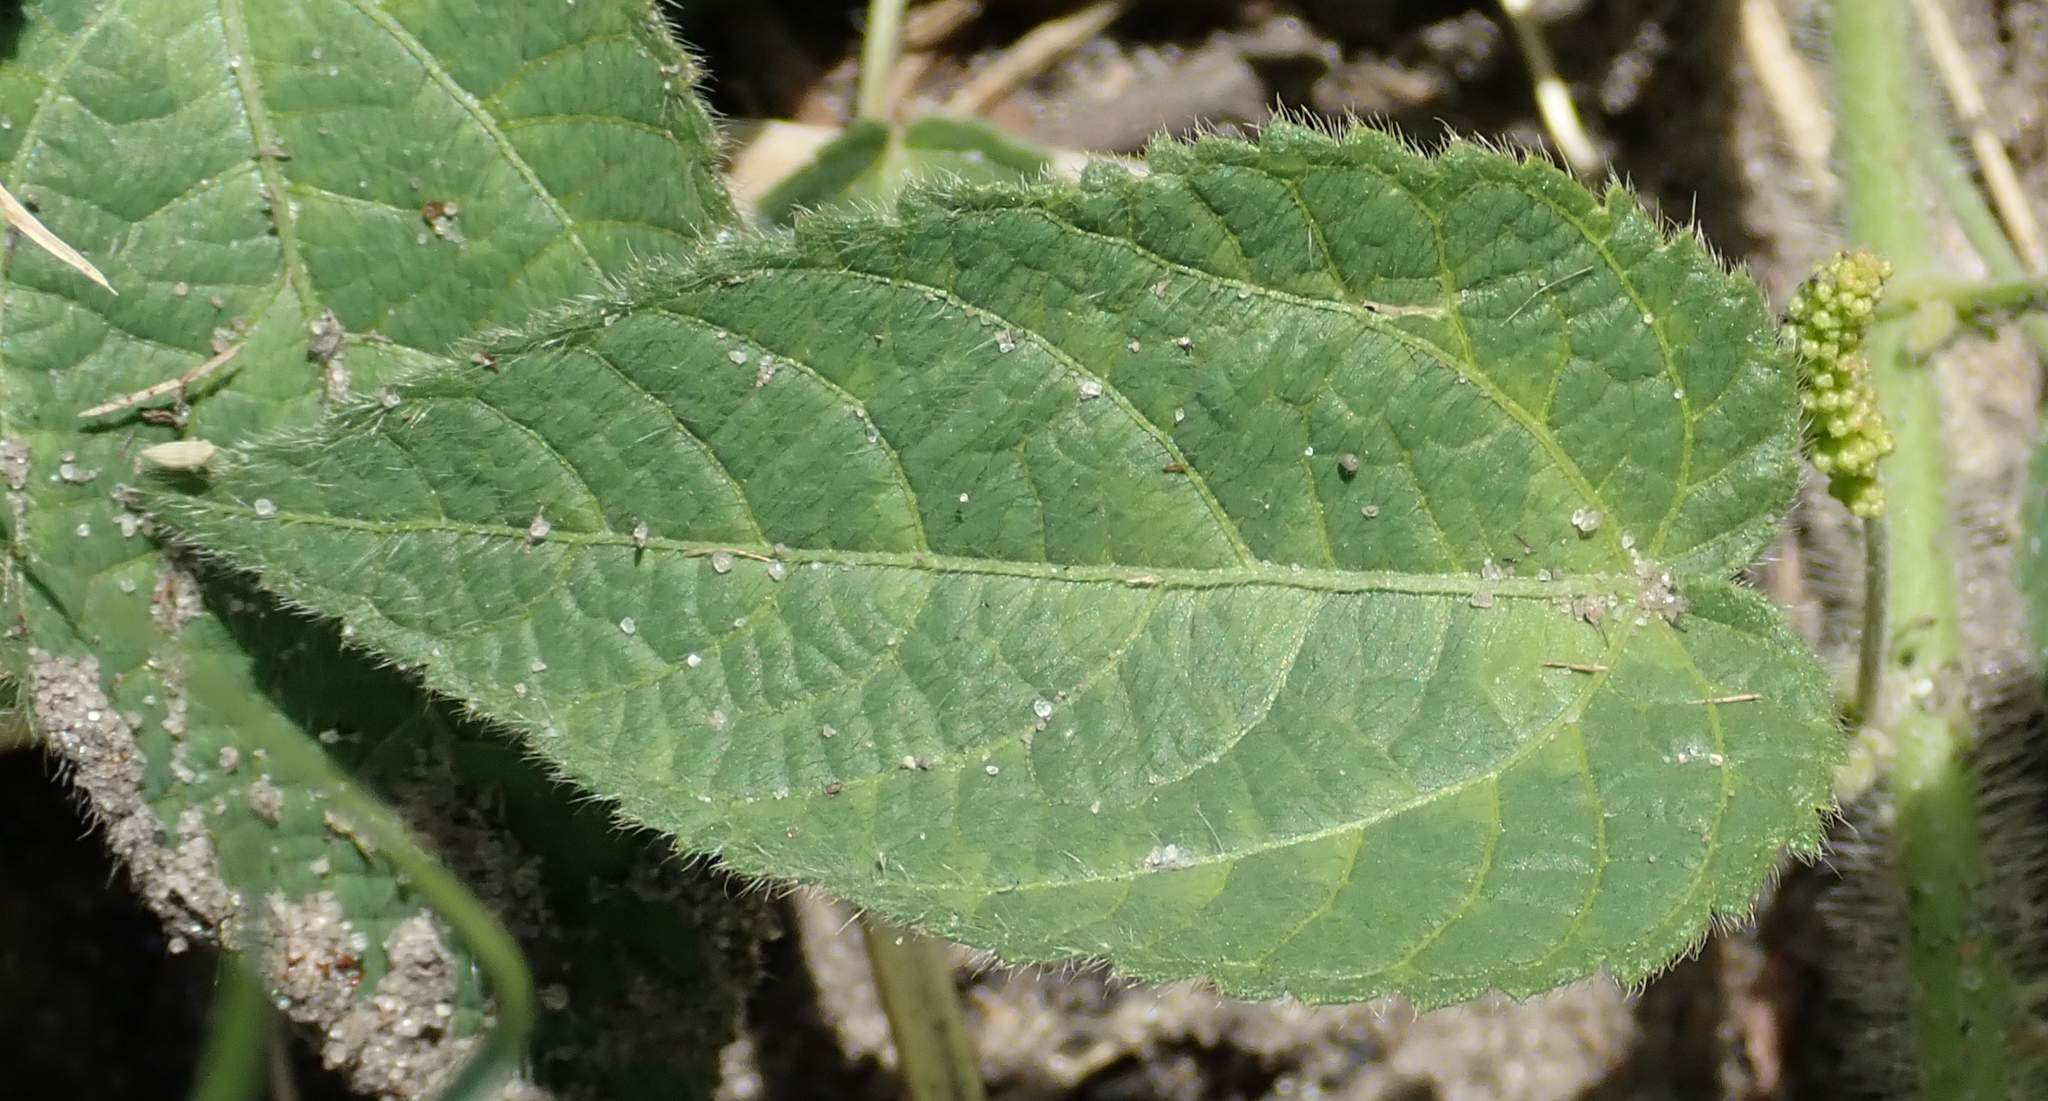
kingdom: Plantae
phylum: Tracheophyta
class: Magnoliopsida
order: Malpighiales
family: Euphorbiaceae
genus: Acalypha
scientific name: Acalypha petiolaris
